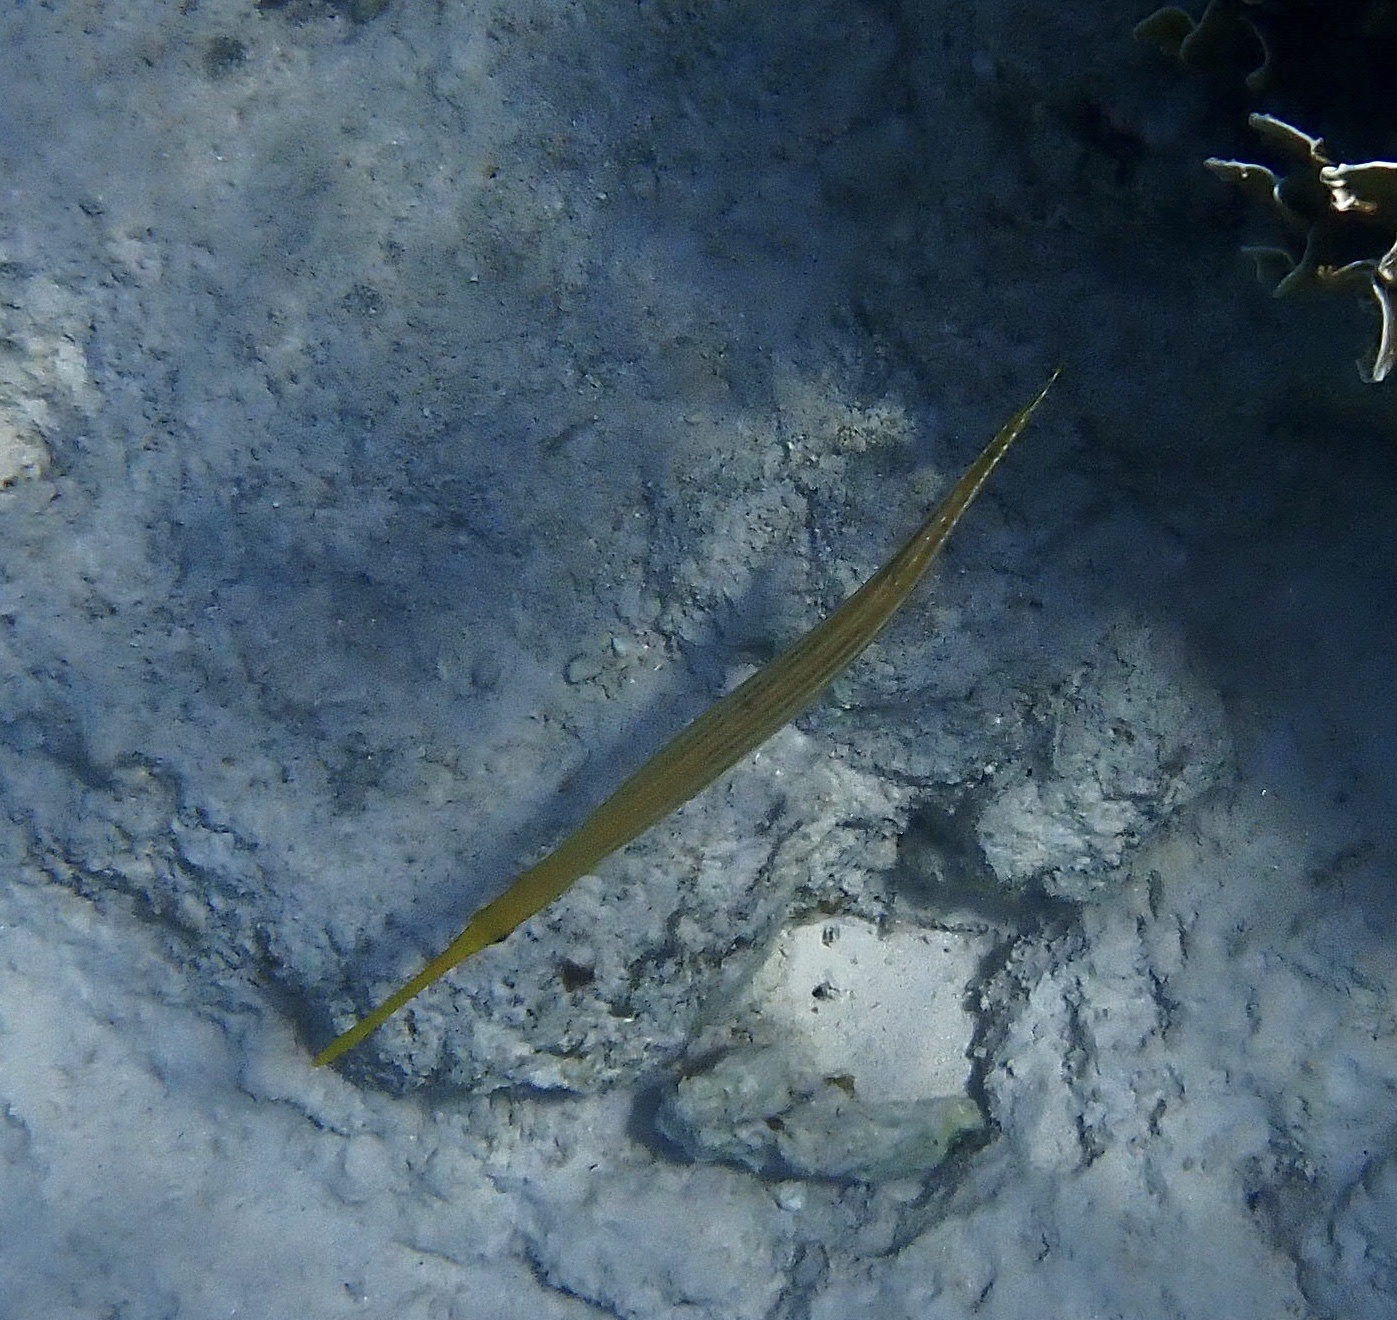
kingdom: Animalia
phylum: Chordata
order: Syngnathiformes
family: Aulostomidae
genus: Aulostomus
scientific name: Aulostomus maculatus
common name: West atlantic trumpetfish
